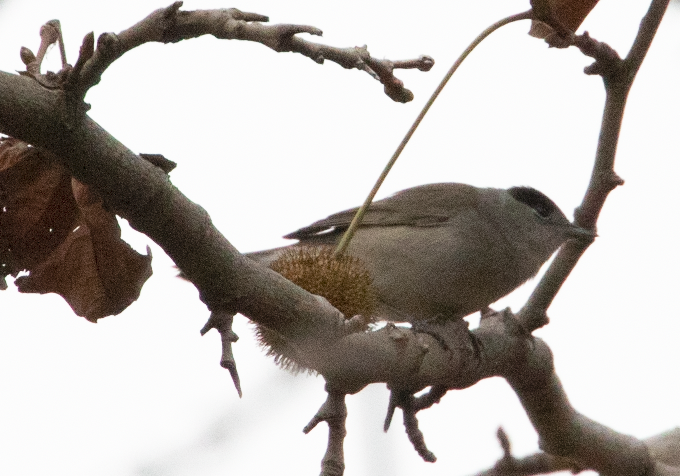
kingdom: Animalia
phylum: Chordata
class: Aves
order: Passeriformes
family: Sylviidae
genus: Sylvia
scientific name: Sylvia atricapilla
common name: Eurasian blackcap
